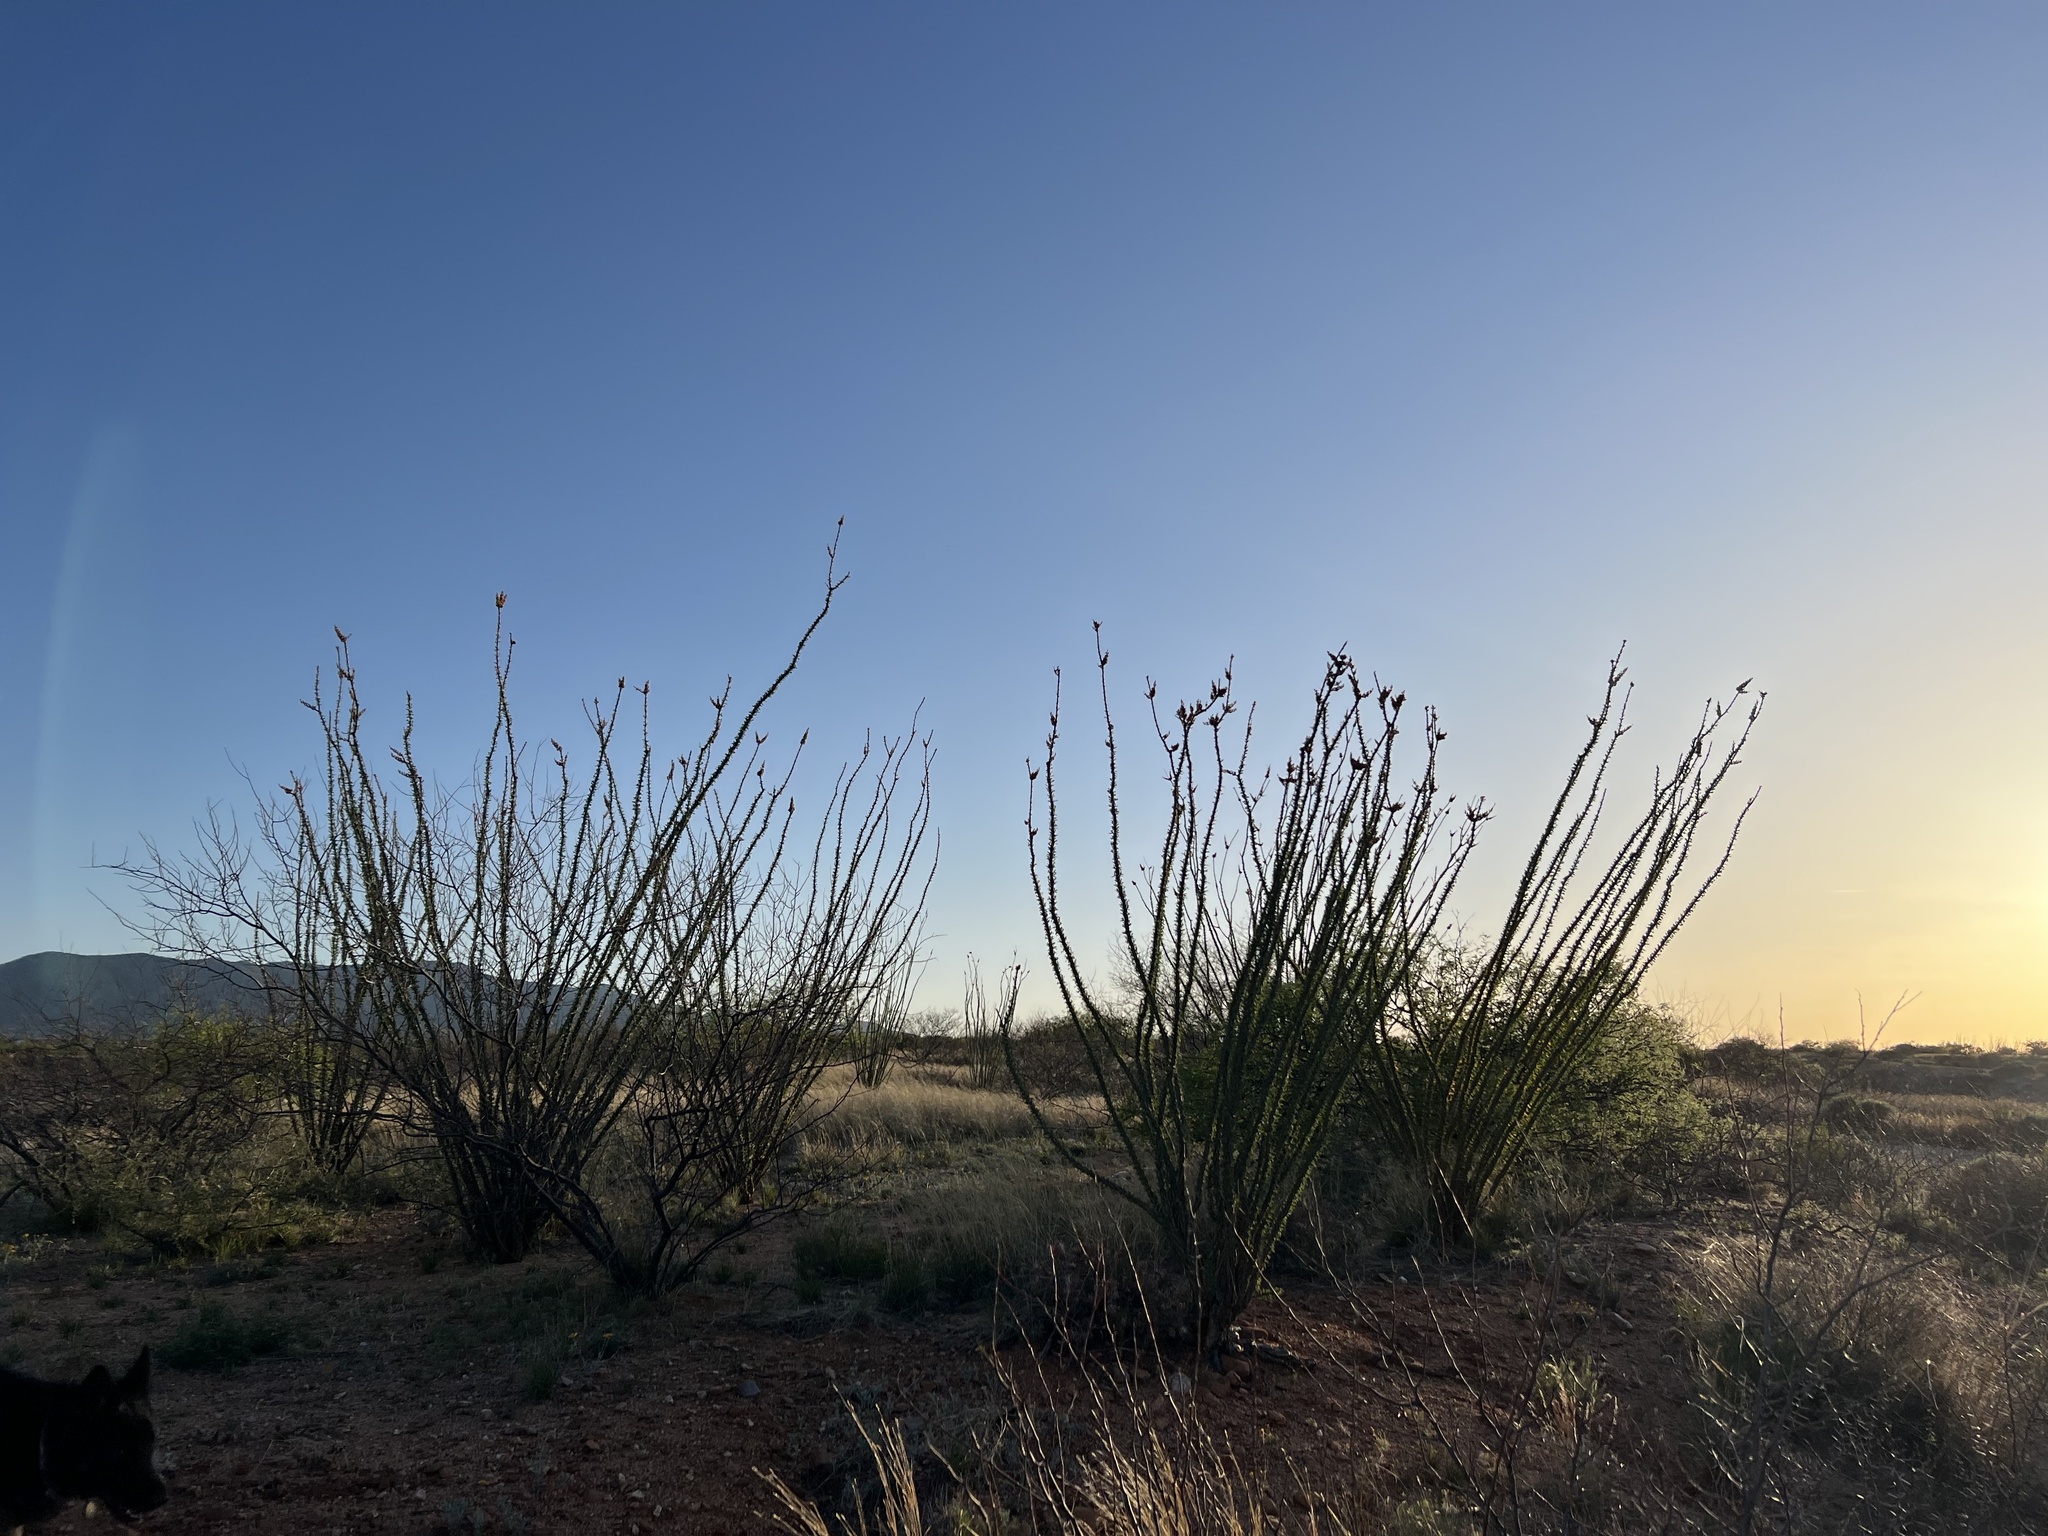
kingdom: Plantae
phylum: Tracheophyta
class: Magnoliopsida
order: Ericales
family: Fouquieriaceae
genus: Fouquieria
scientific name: Fouquieria splendens
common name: Vine-cactus
